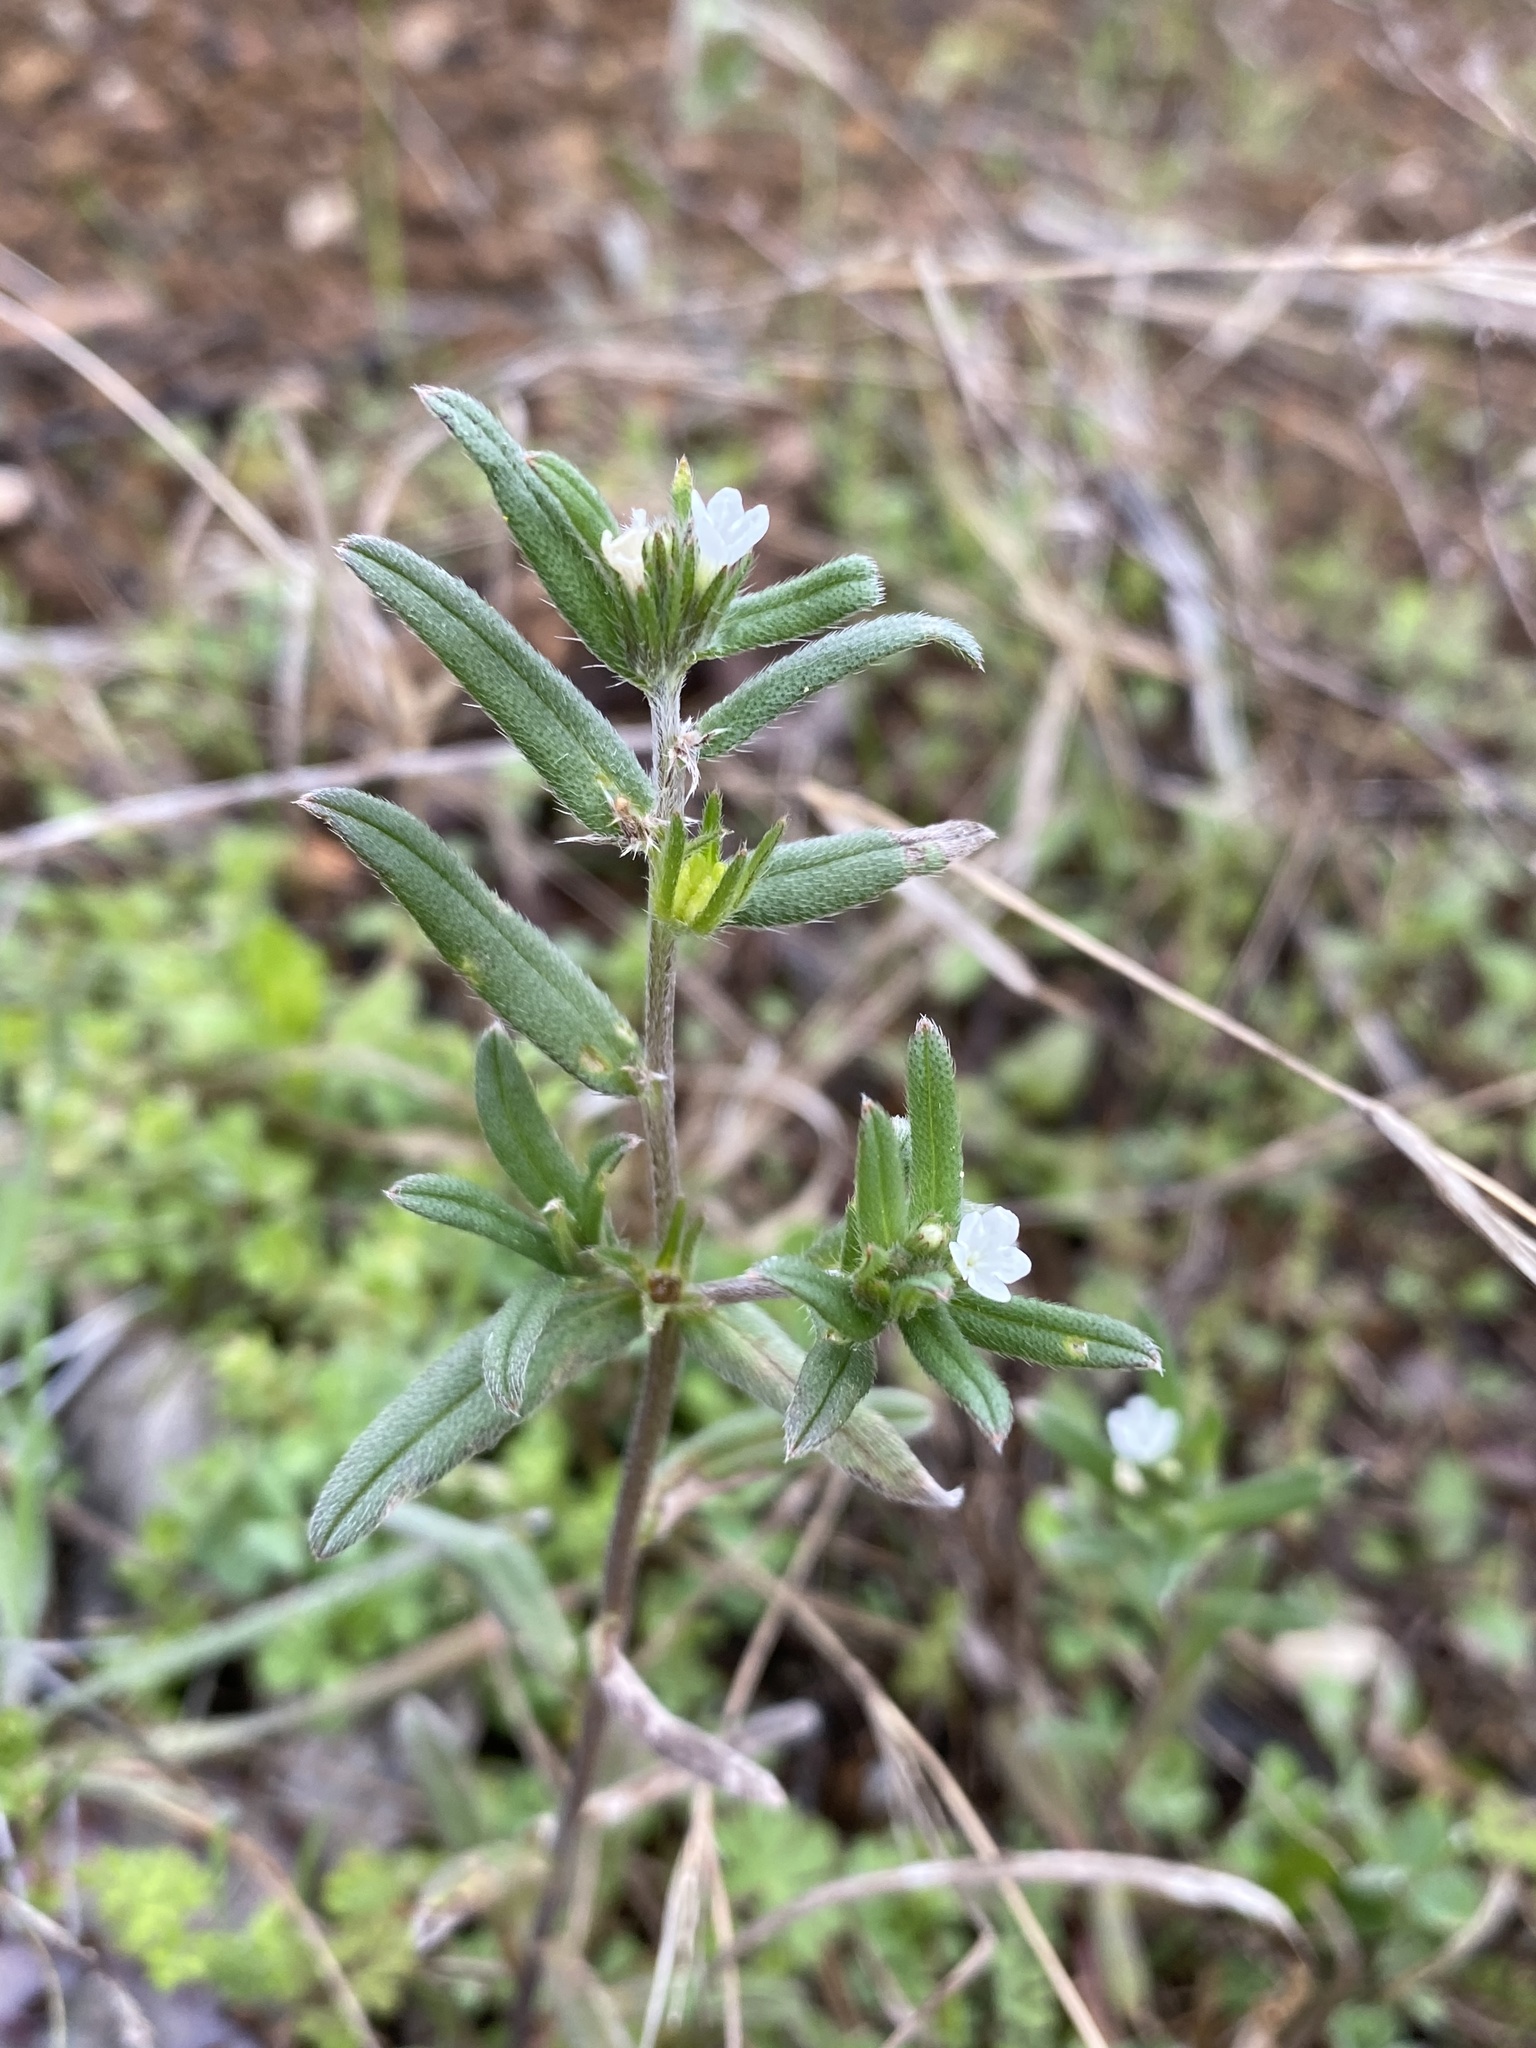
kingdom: Plantae
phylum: Tracheophyta
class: Magnoliopsida
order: Boraginales
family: Boraginaceae
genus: Buglossoides
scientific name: Buglossoides arvensis
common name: Corn gromwell
